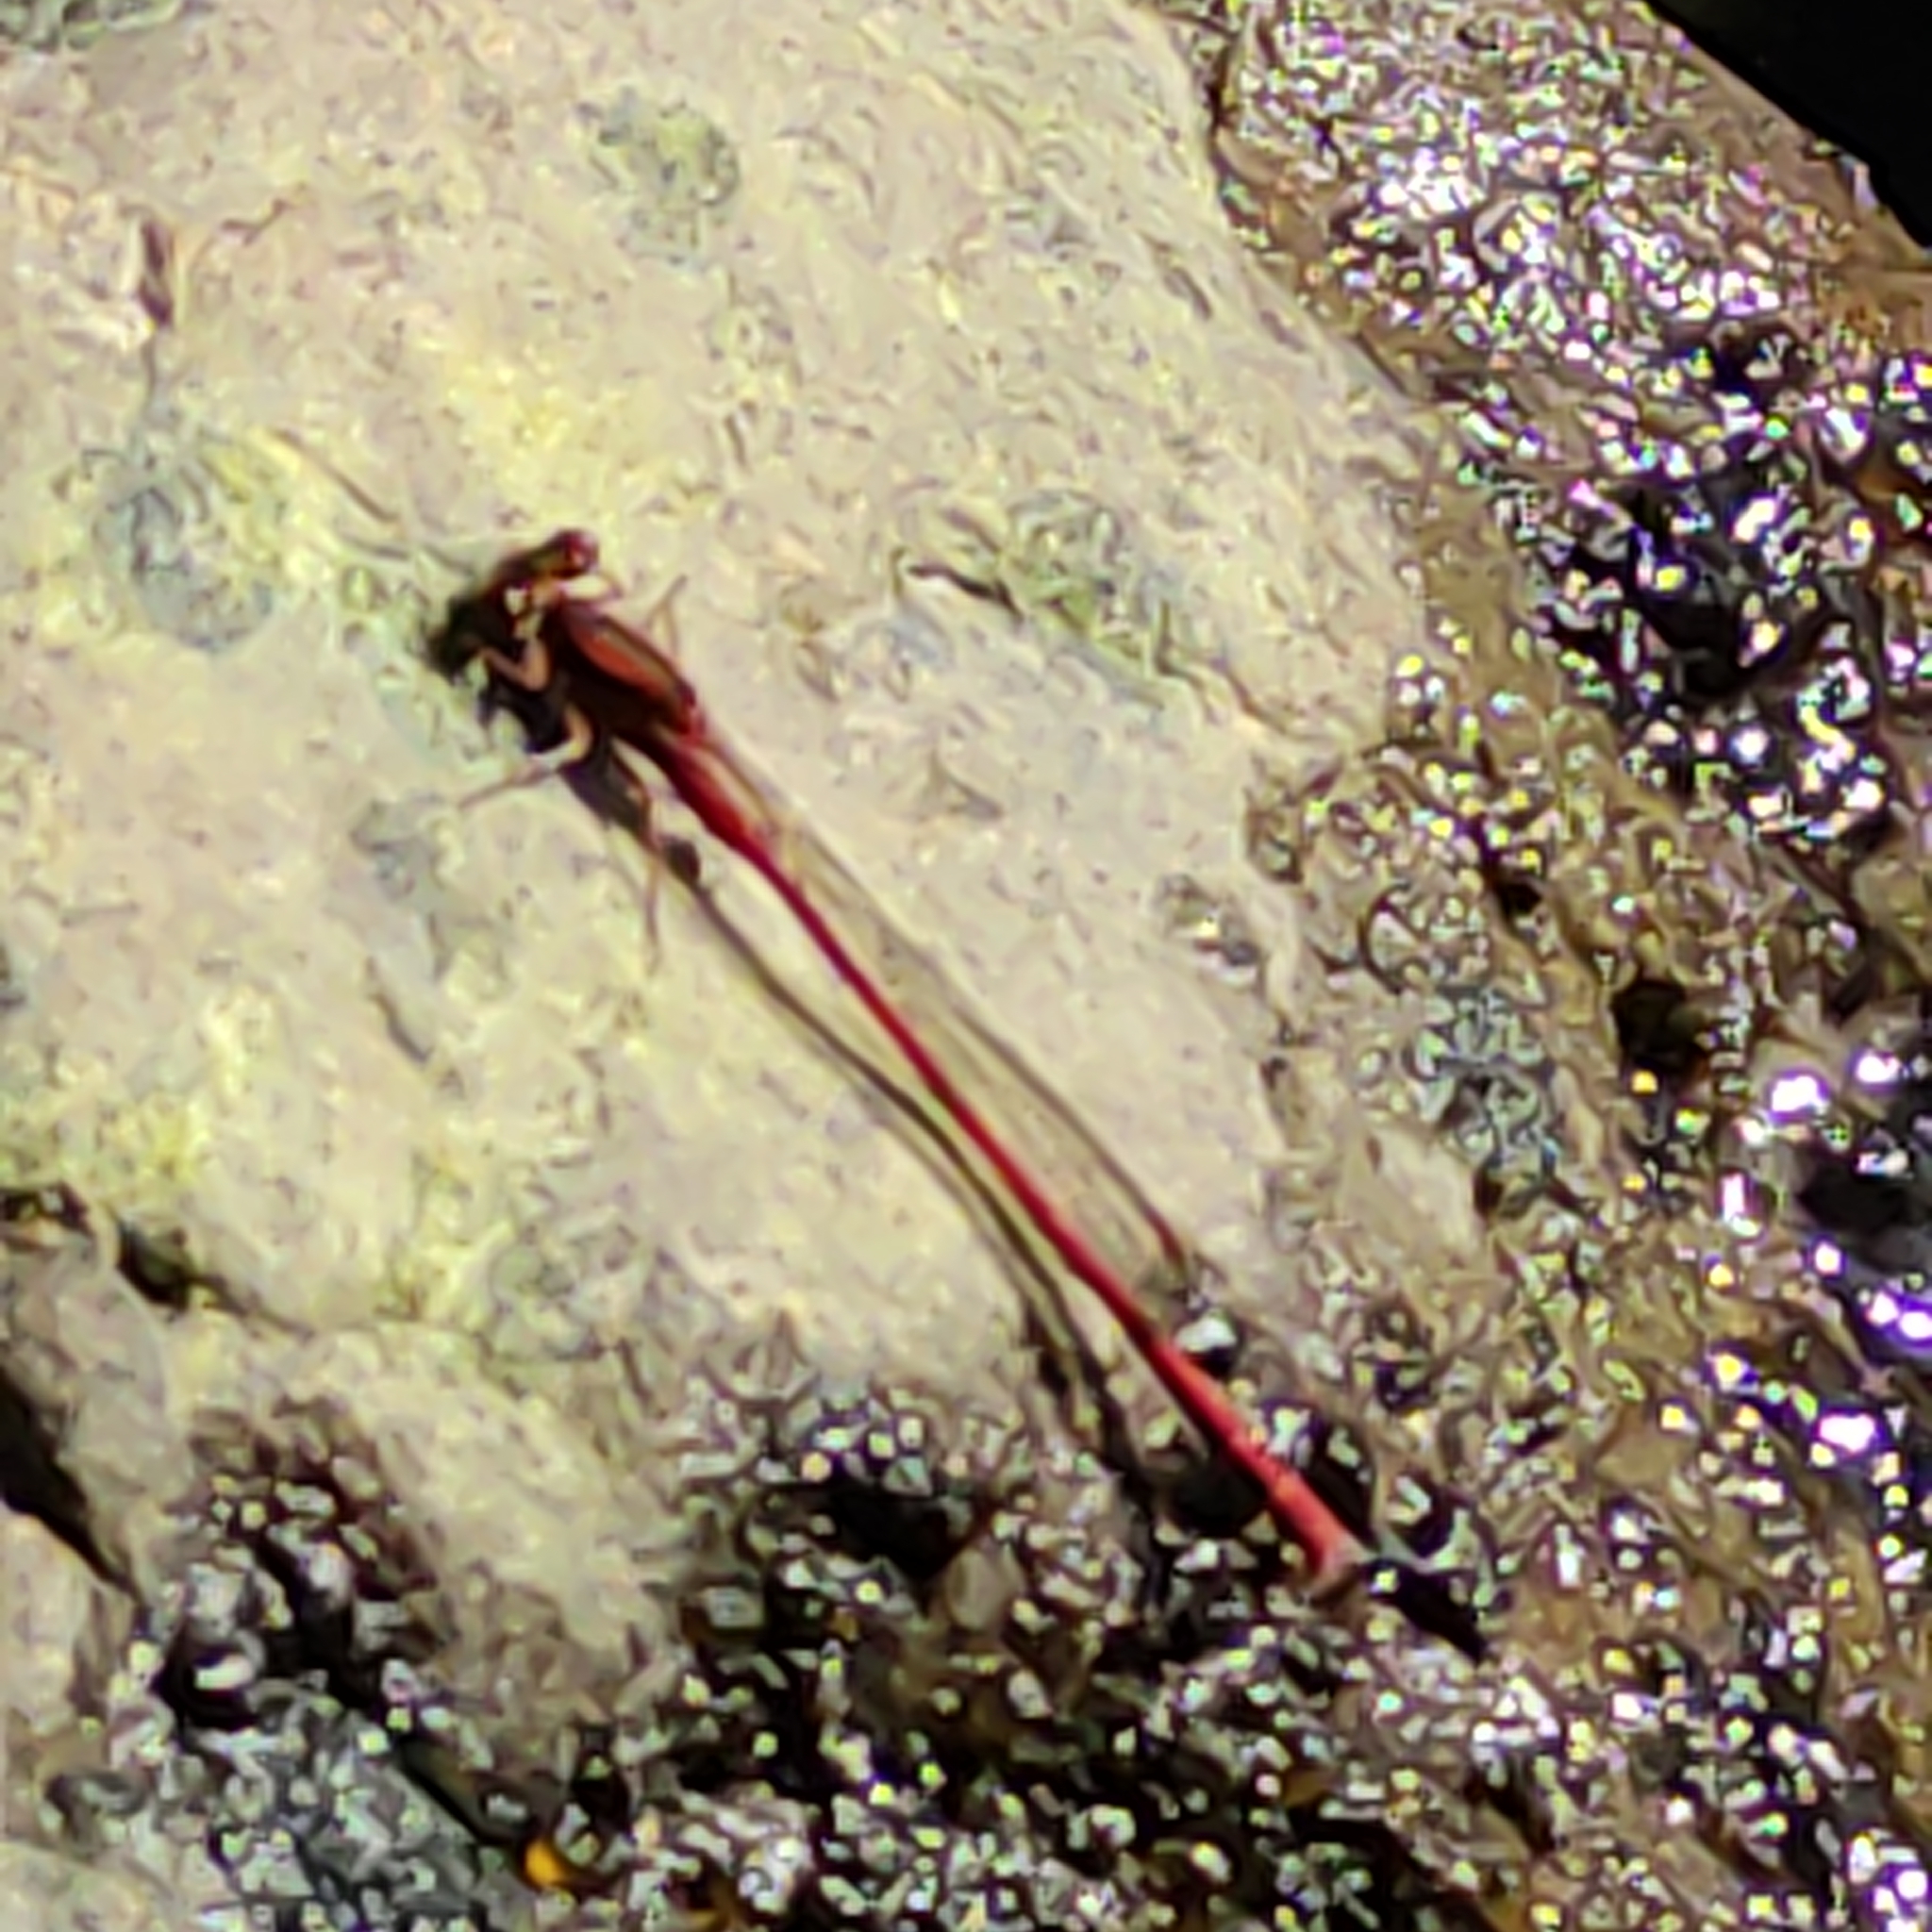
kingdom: Animalia
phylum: Arthropoda
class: Insecta
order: Odonata
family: Coenagrionidae
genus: Xanthocnemis
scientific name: Xanthocnemis zealandica
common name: Common redcoat damselfly
